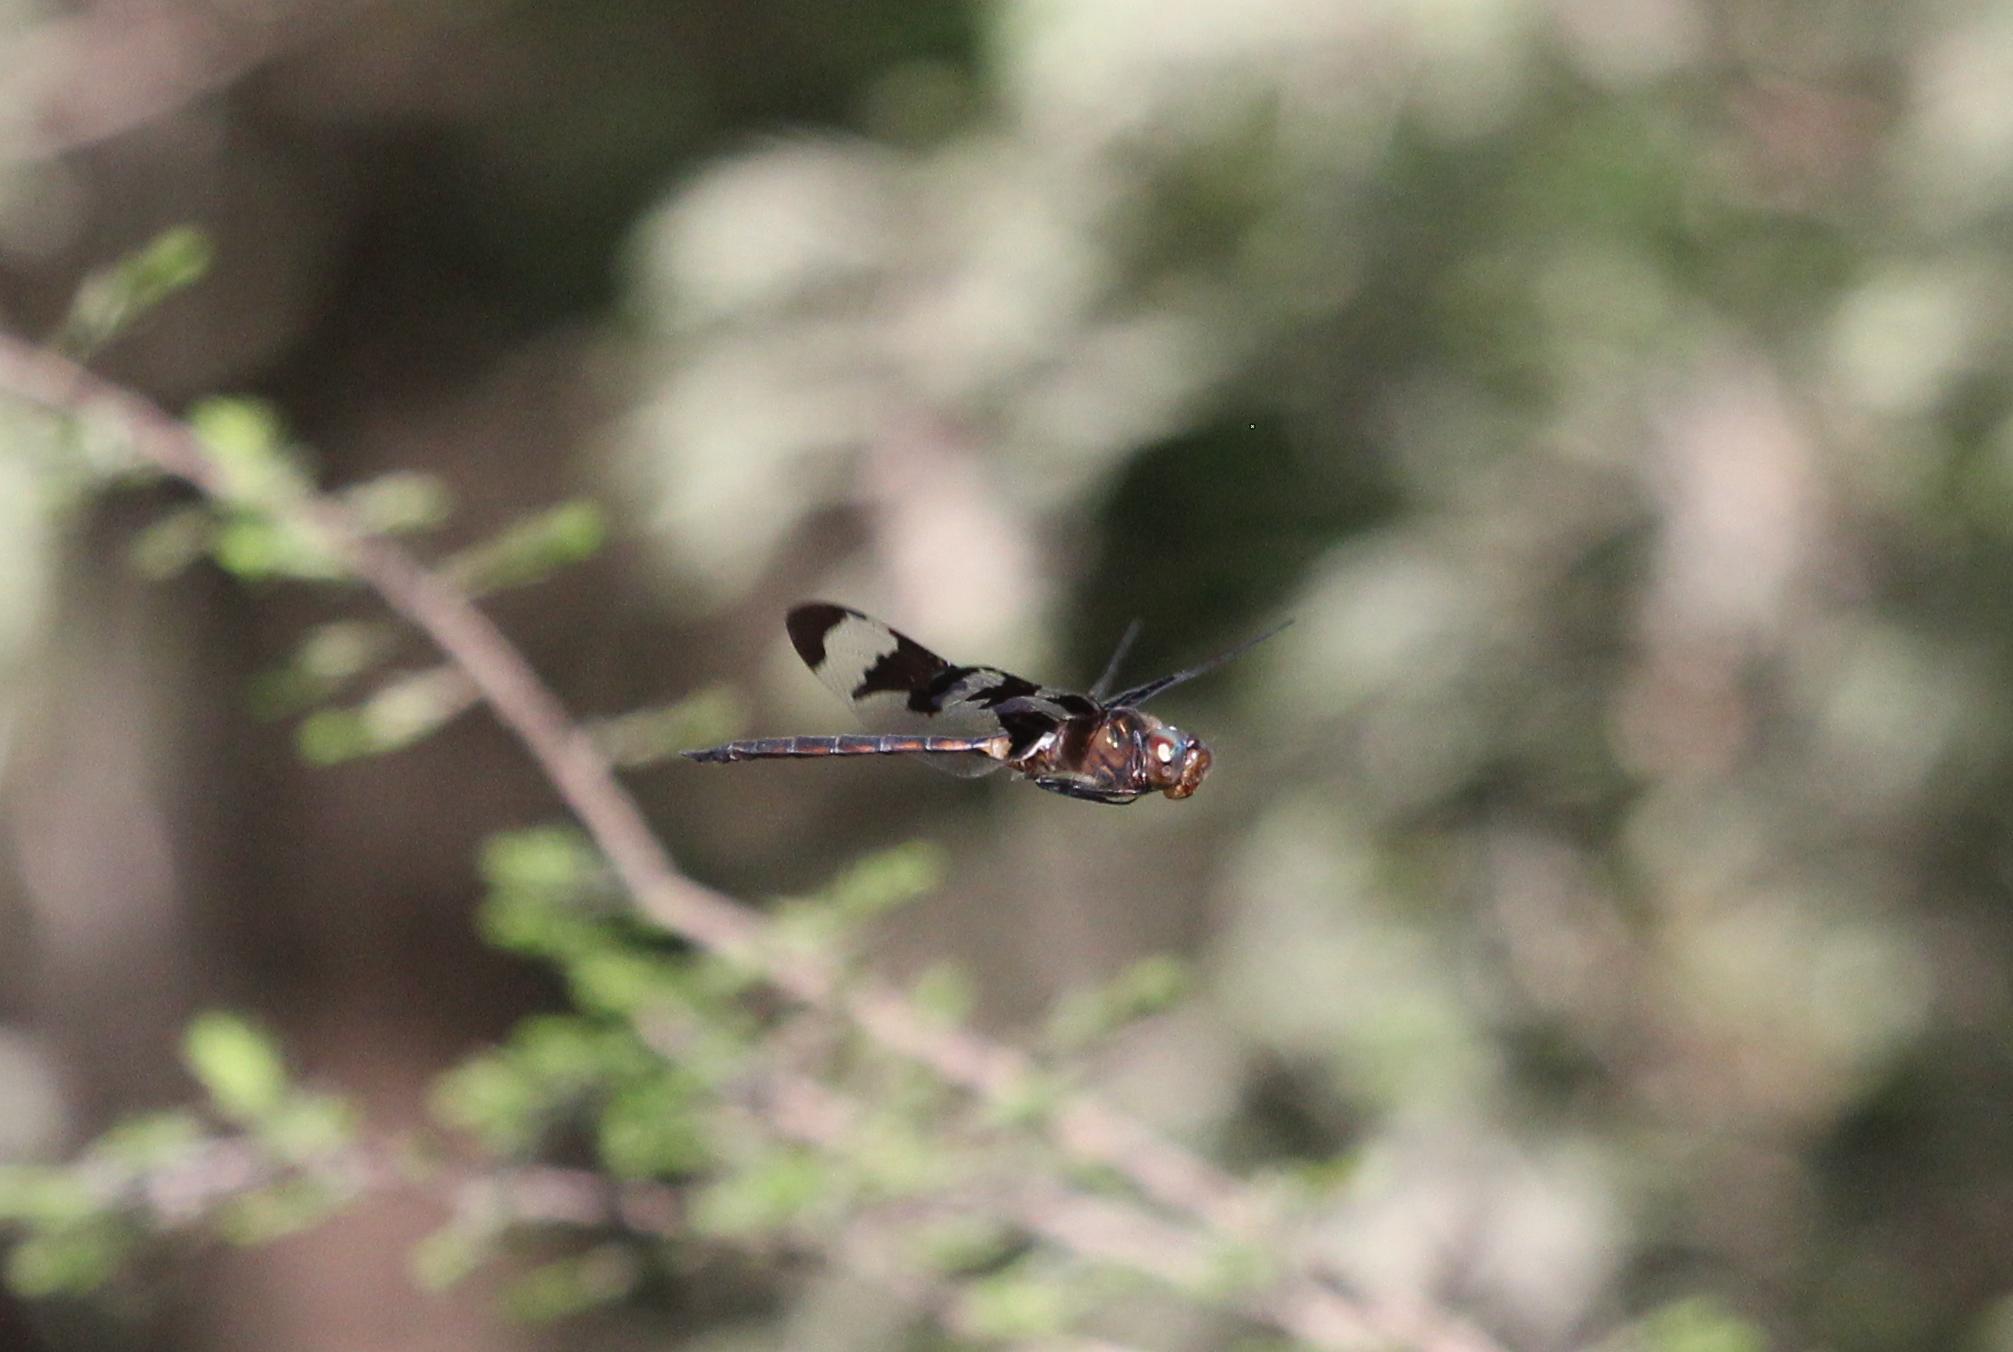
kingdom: Animalia
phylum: Arthropoda
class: Insecta
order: Odonata
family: Corduliidae
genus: Epitheca
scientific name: Epitheca princeps
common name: Prince baskettail
